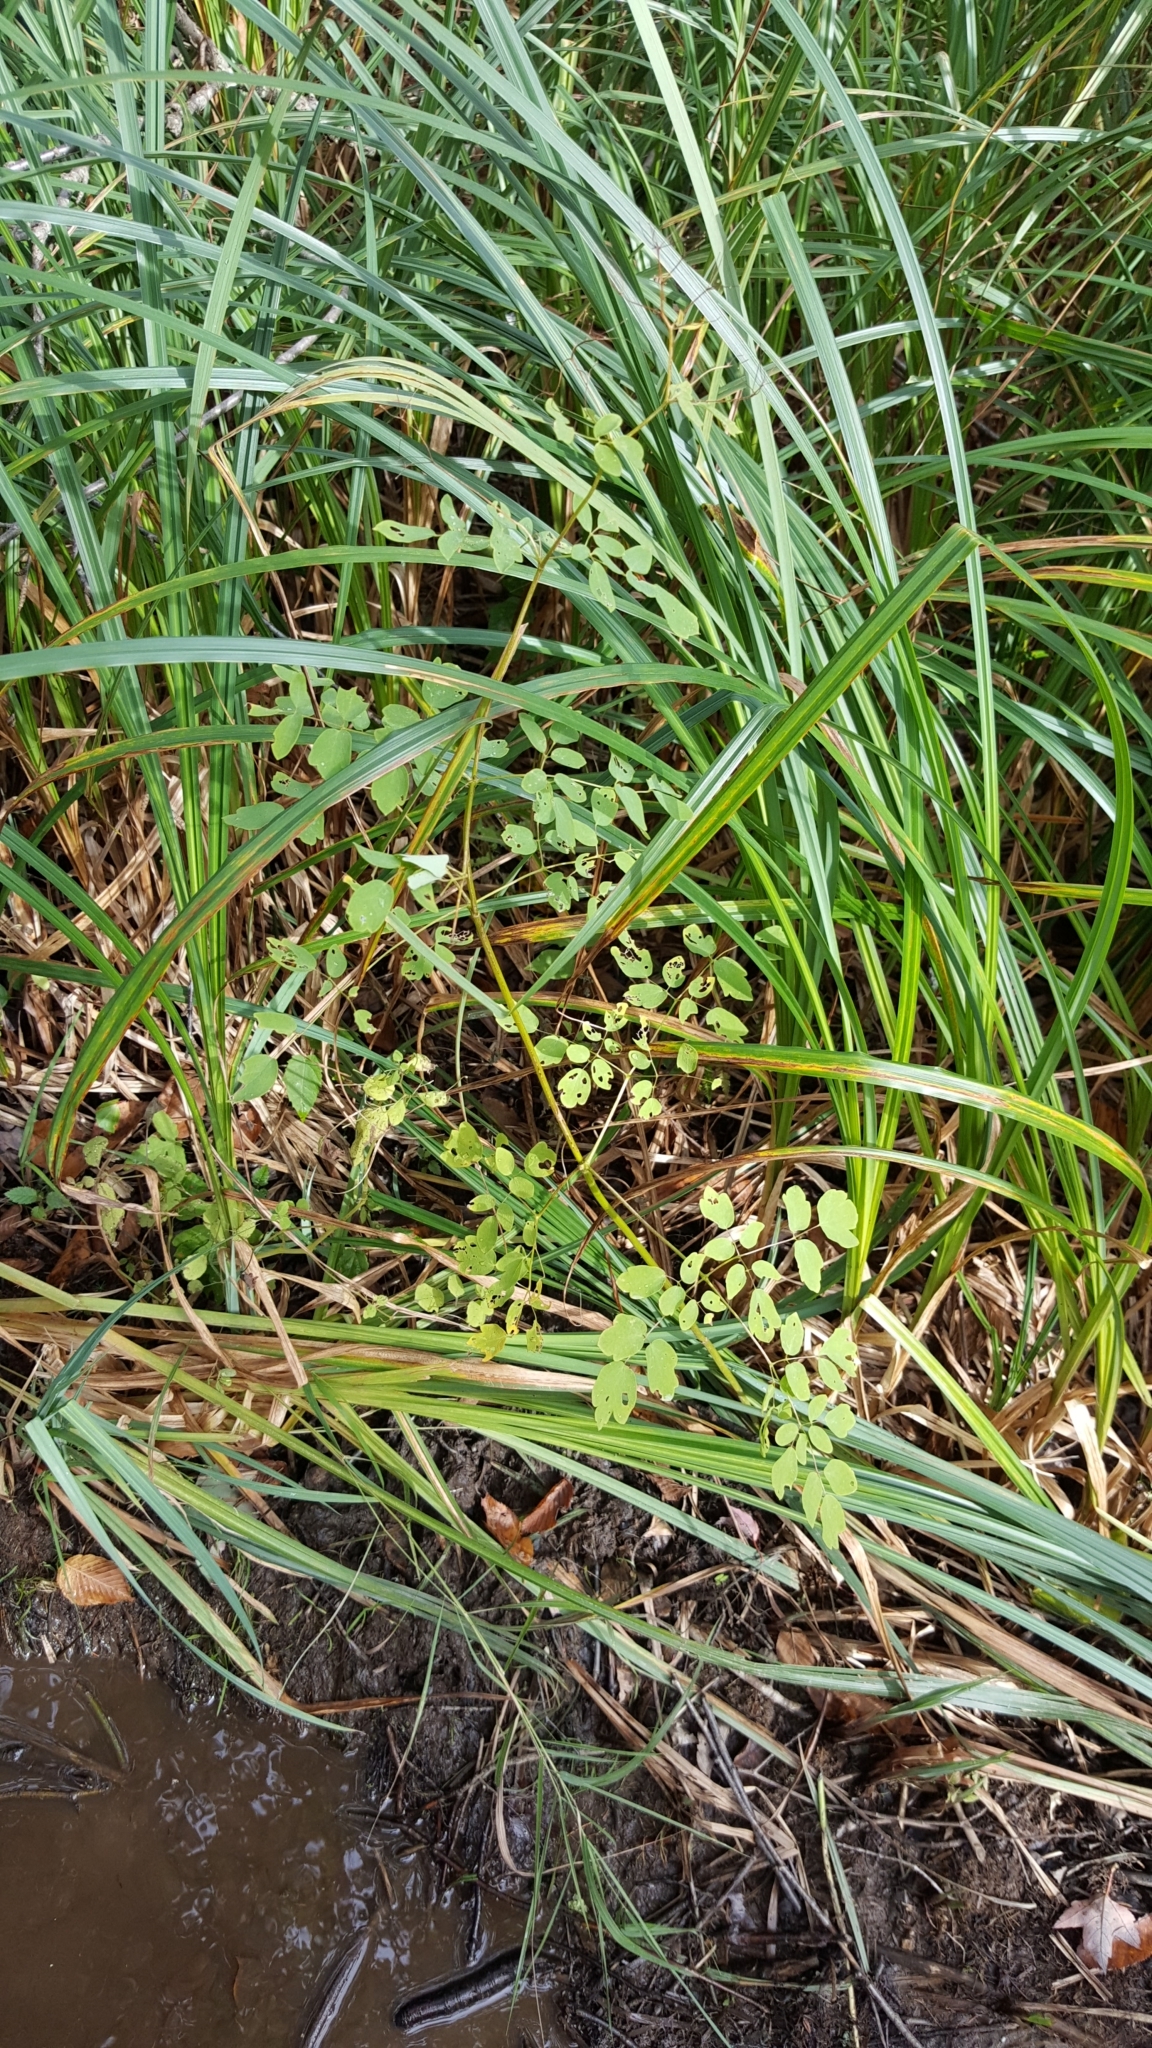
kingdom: Plantae
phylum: Tracheophyta
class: Magnoliopsida
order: Ranunculales
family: Ranunculaceae
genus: Thalictrum
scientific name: Thalictrum pubescens
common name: King-of-the-meadow
